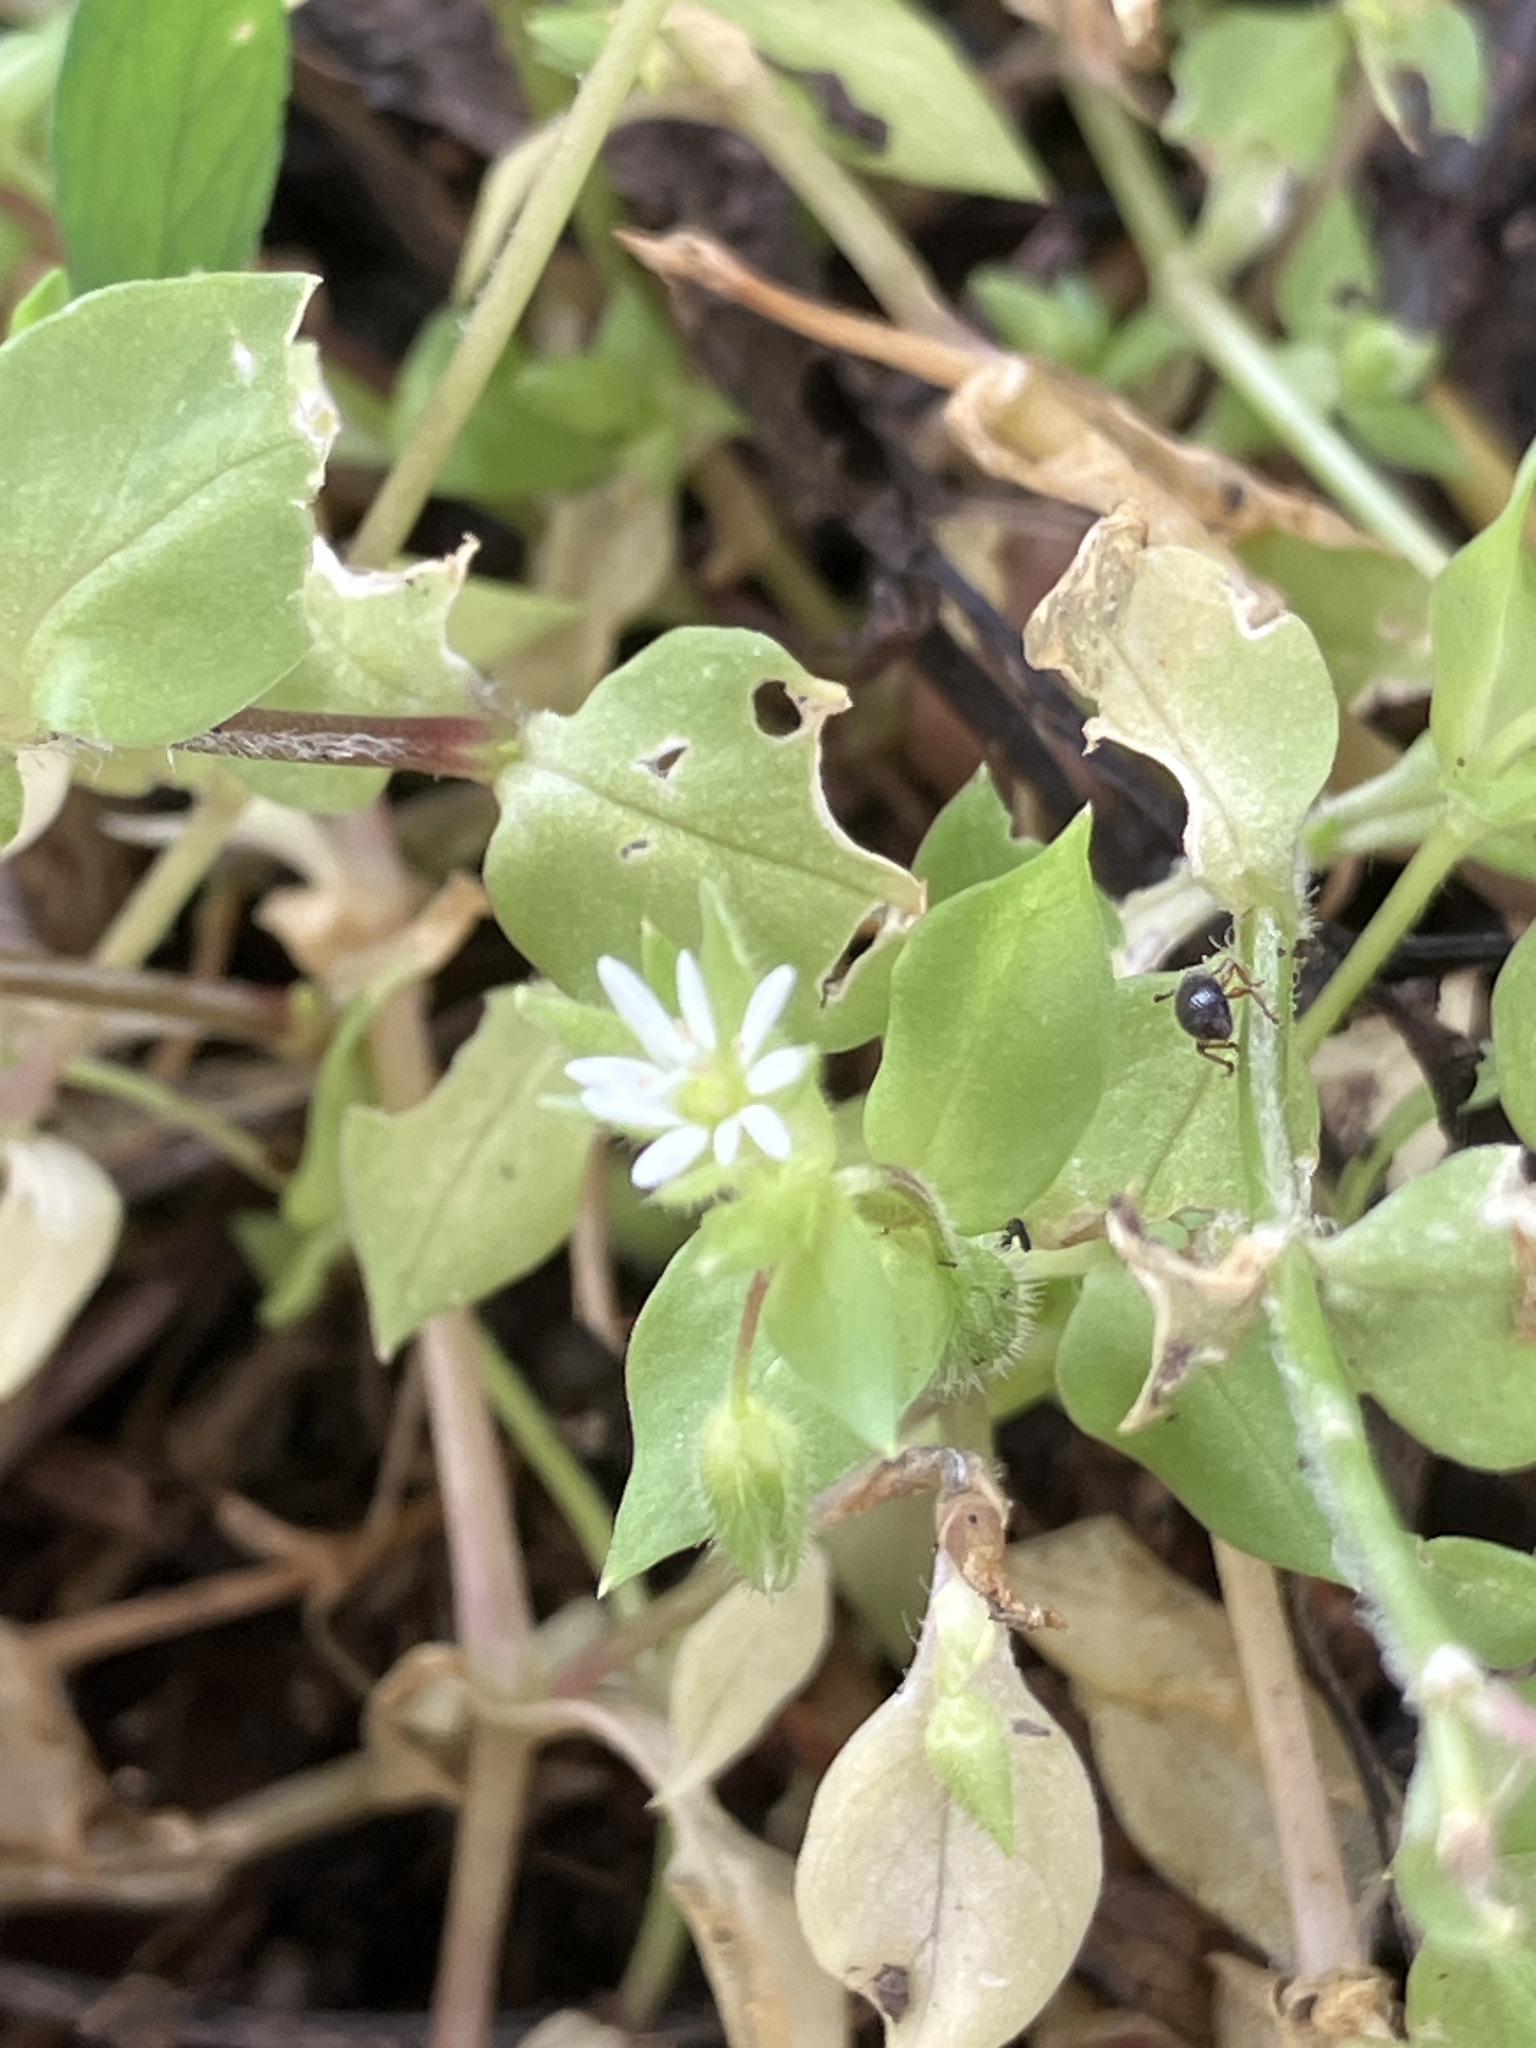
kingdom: Plantae
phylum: Tracheophyta
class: Magnoliopsida
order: Caryophyllales
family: Caryophyllaceae
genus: Stellaria
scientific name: Stellaria ruderalis
